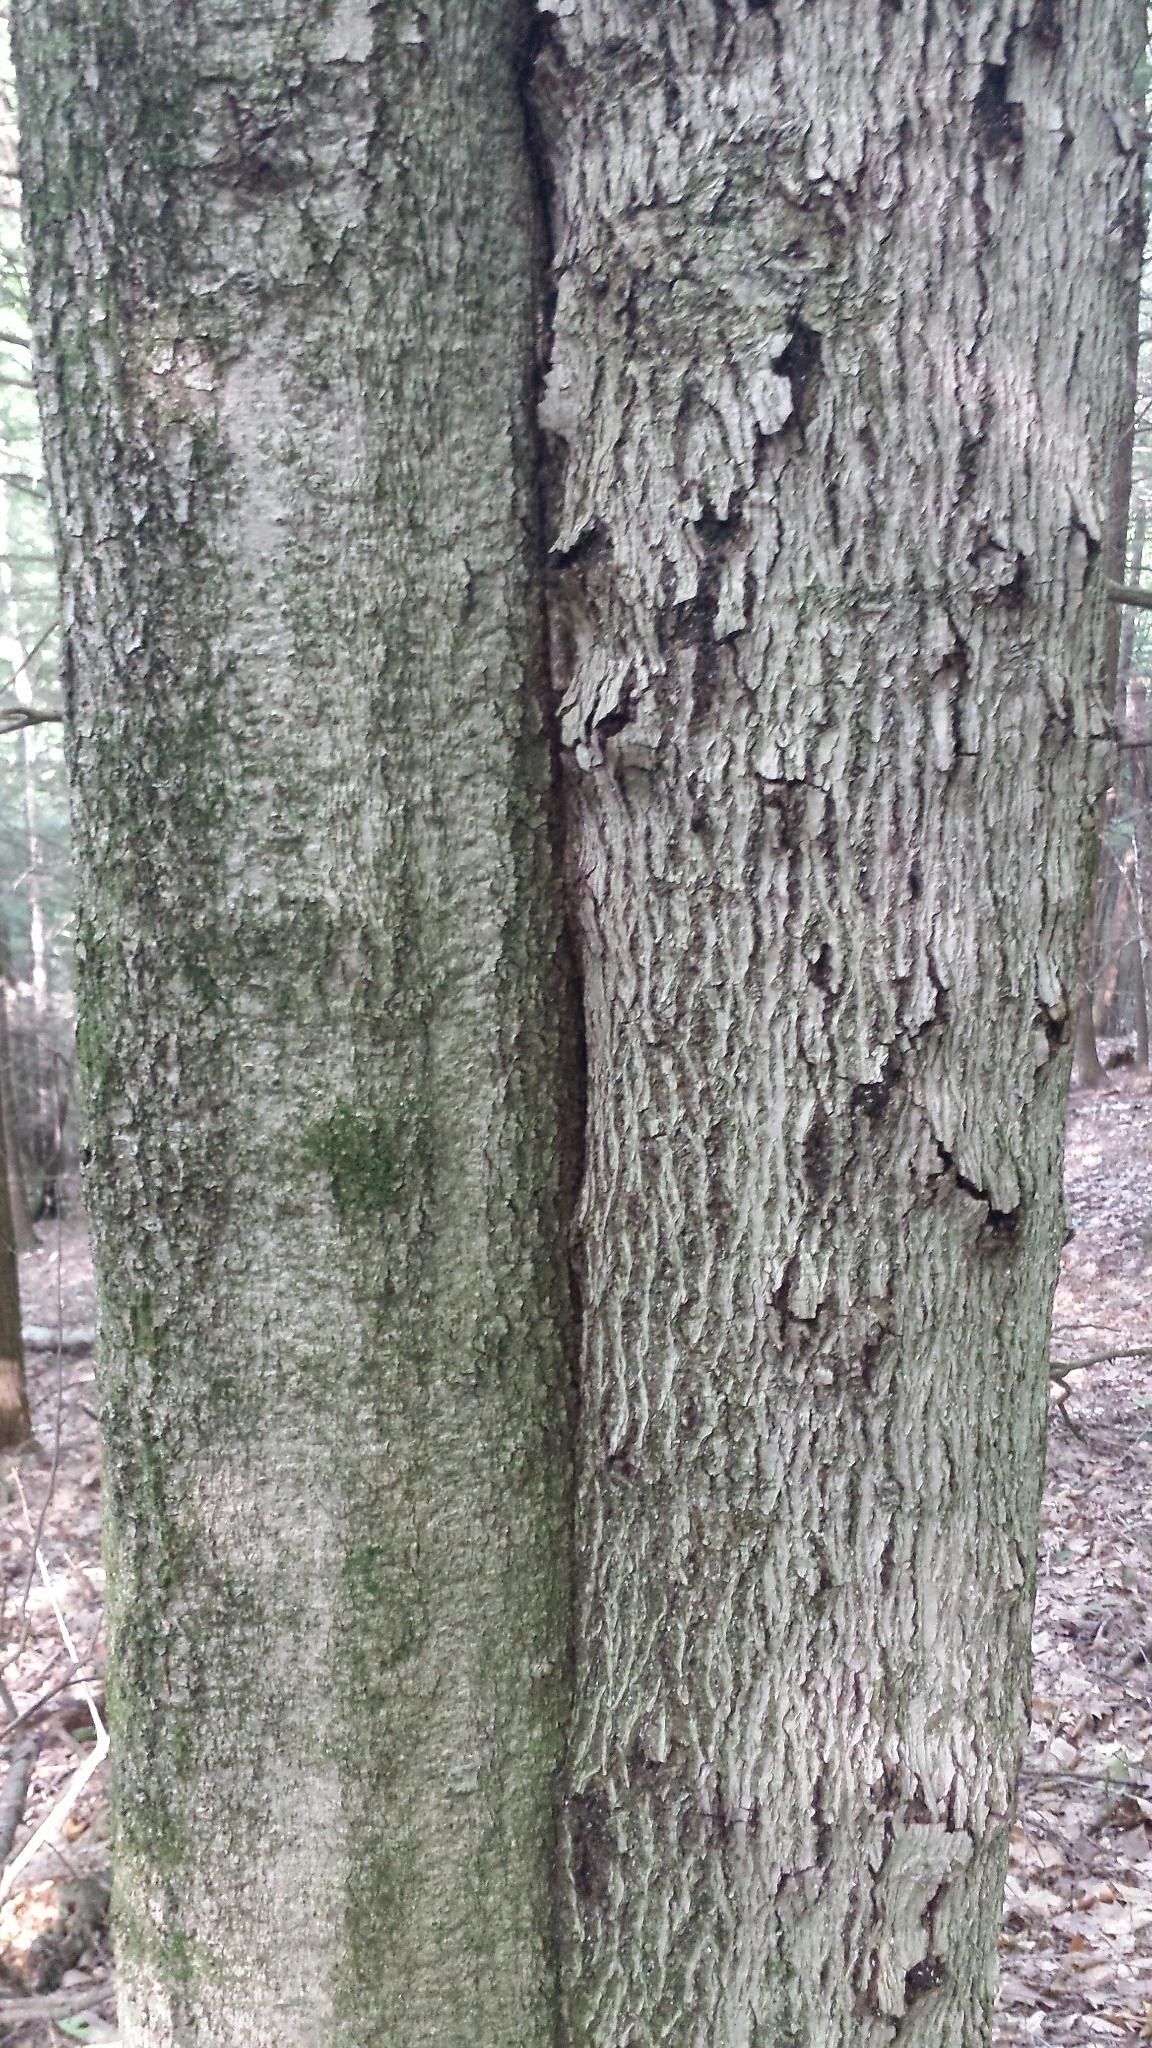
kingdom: Plantae
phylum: Tracheophyta
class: Magnoliopsida
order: Fagales
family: Fagaceae
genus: Fagus
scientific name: Fagus grandifolia
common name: American beech
